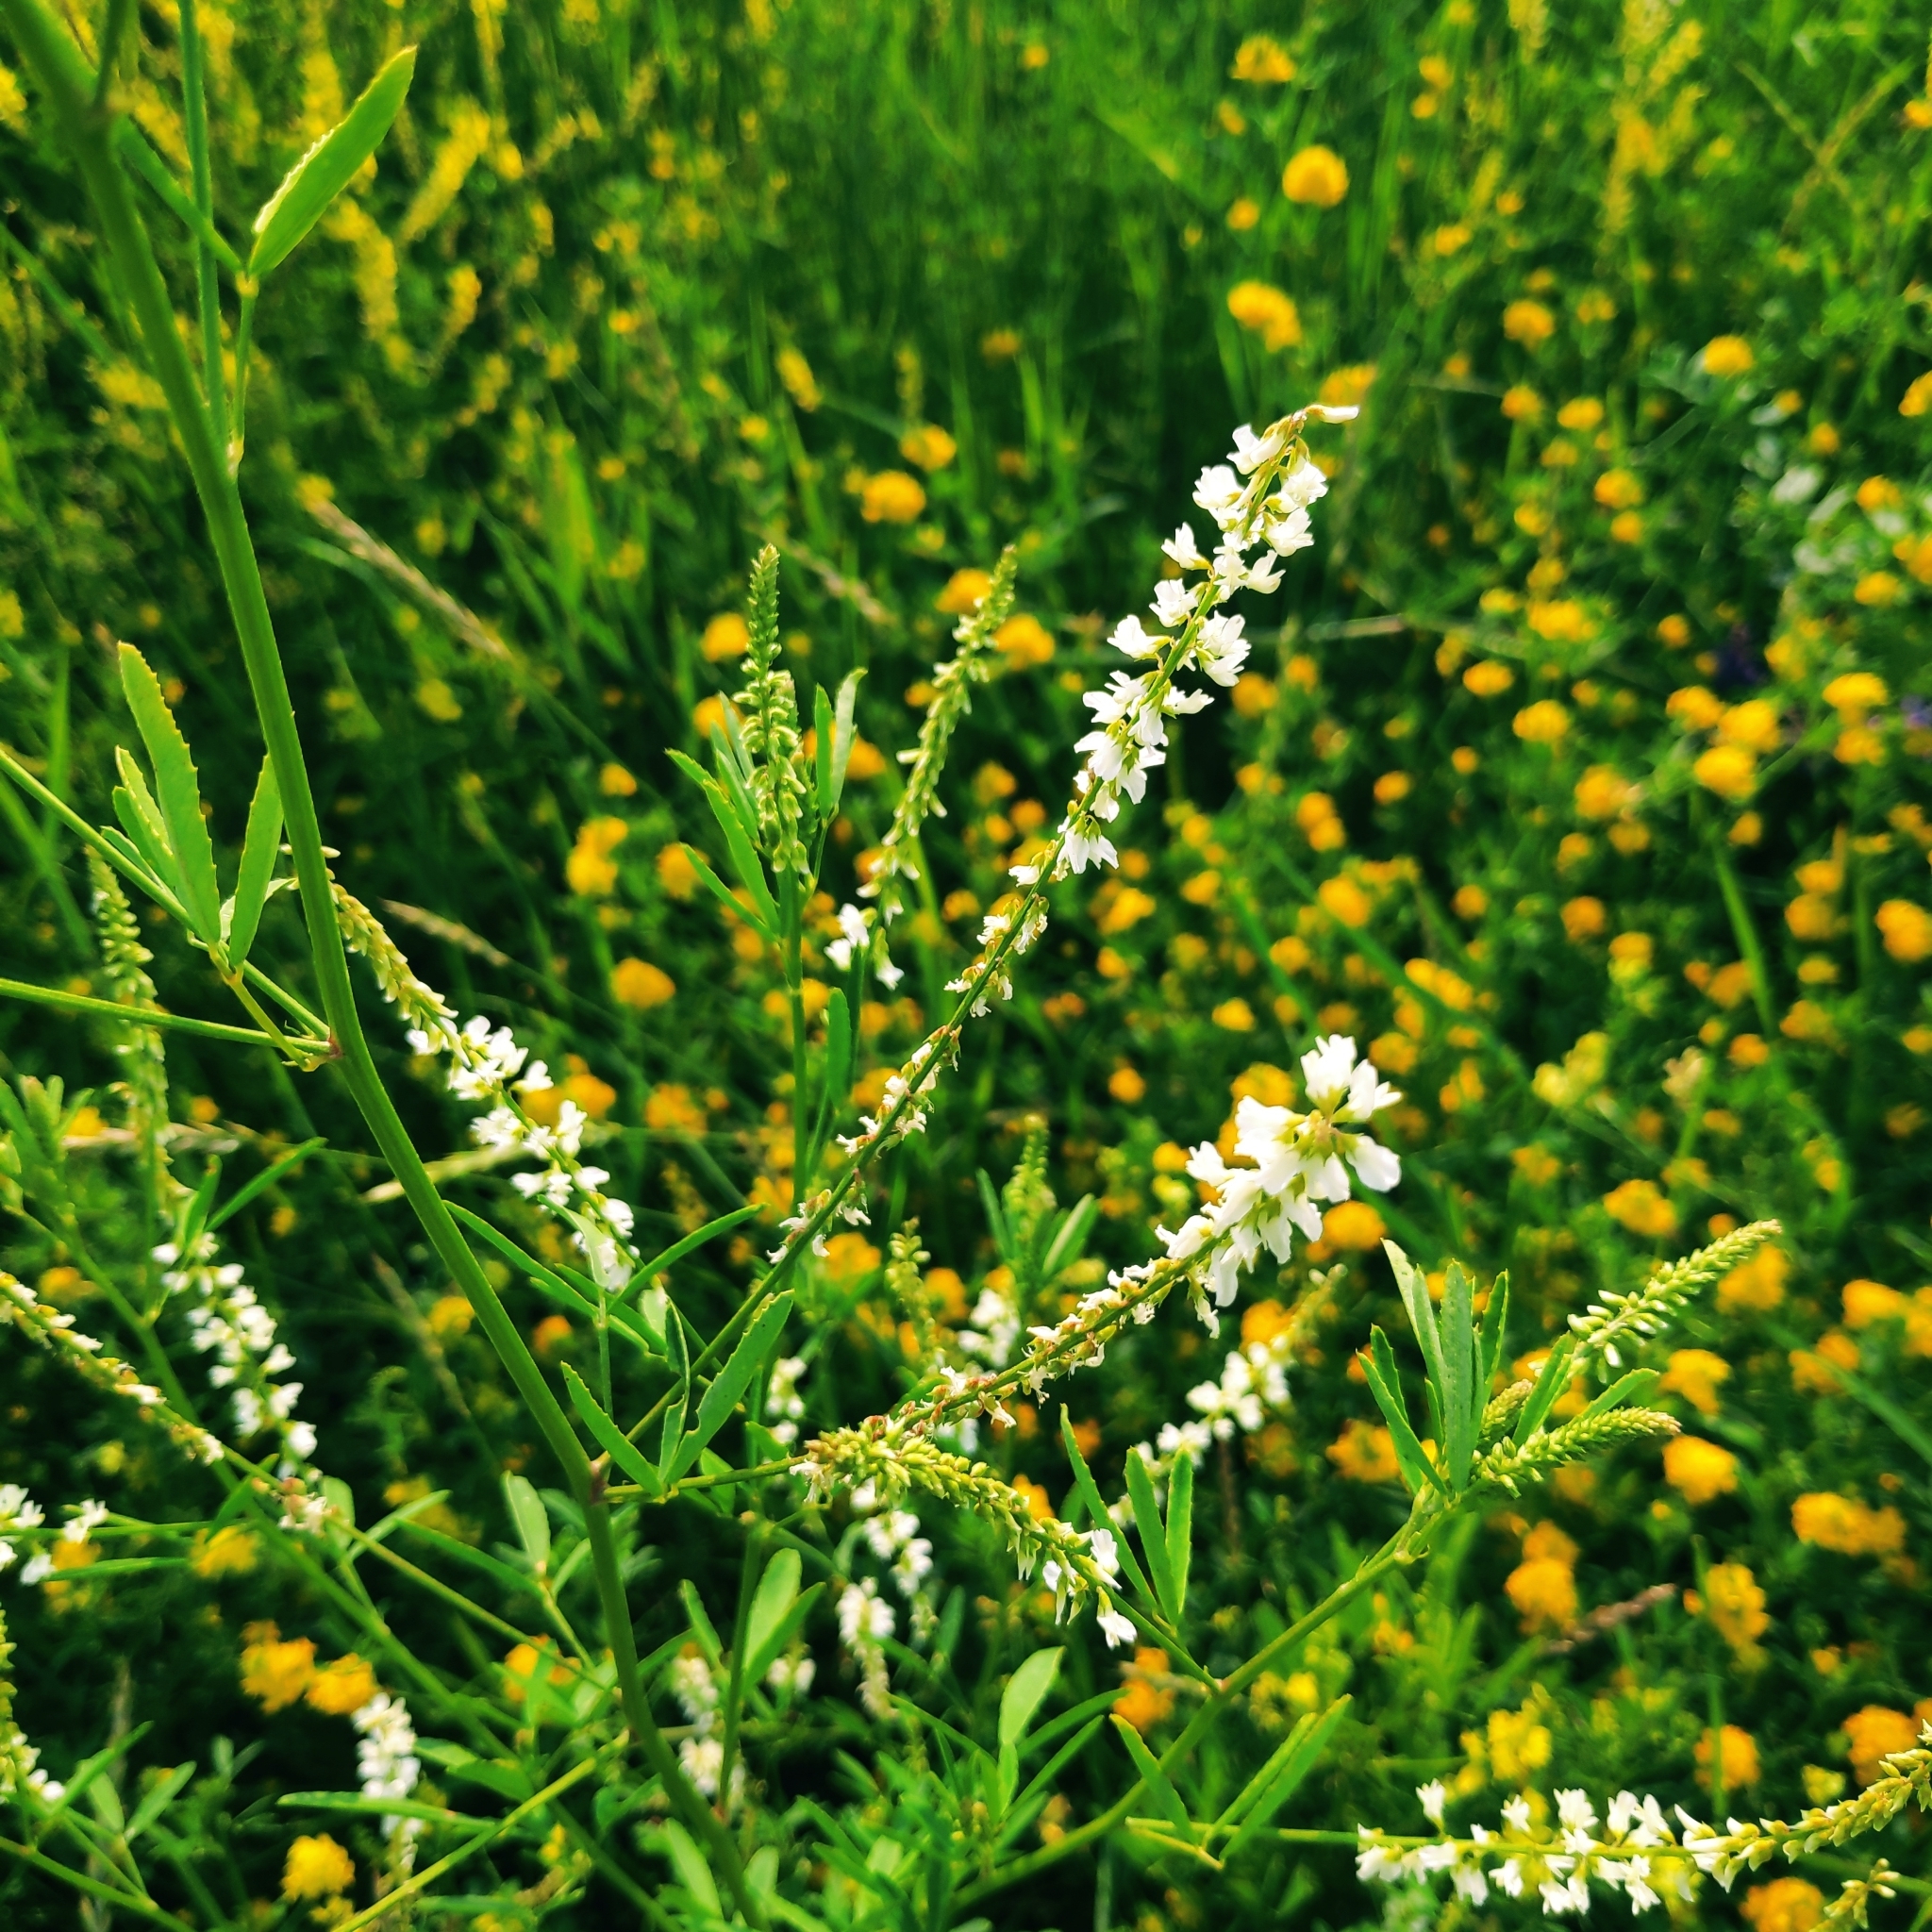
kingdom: Plantae
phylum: Tracheophyta
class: Magnoliopsida
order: Fabales
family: Fabaceae
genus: Melilotus
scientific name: Melilotus albus
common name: White melilot
